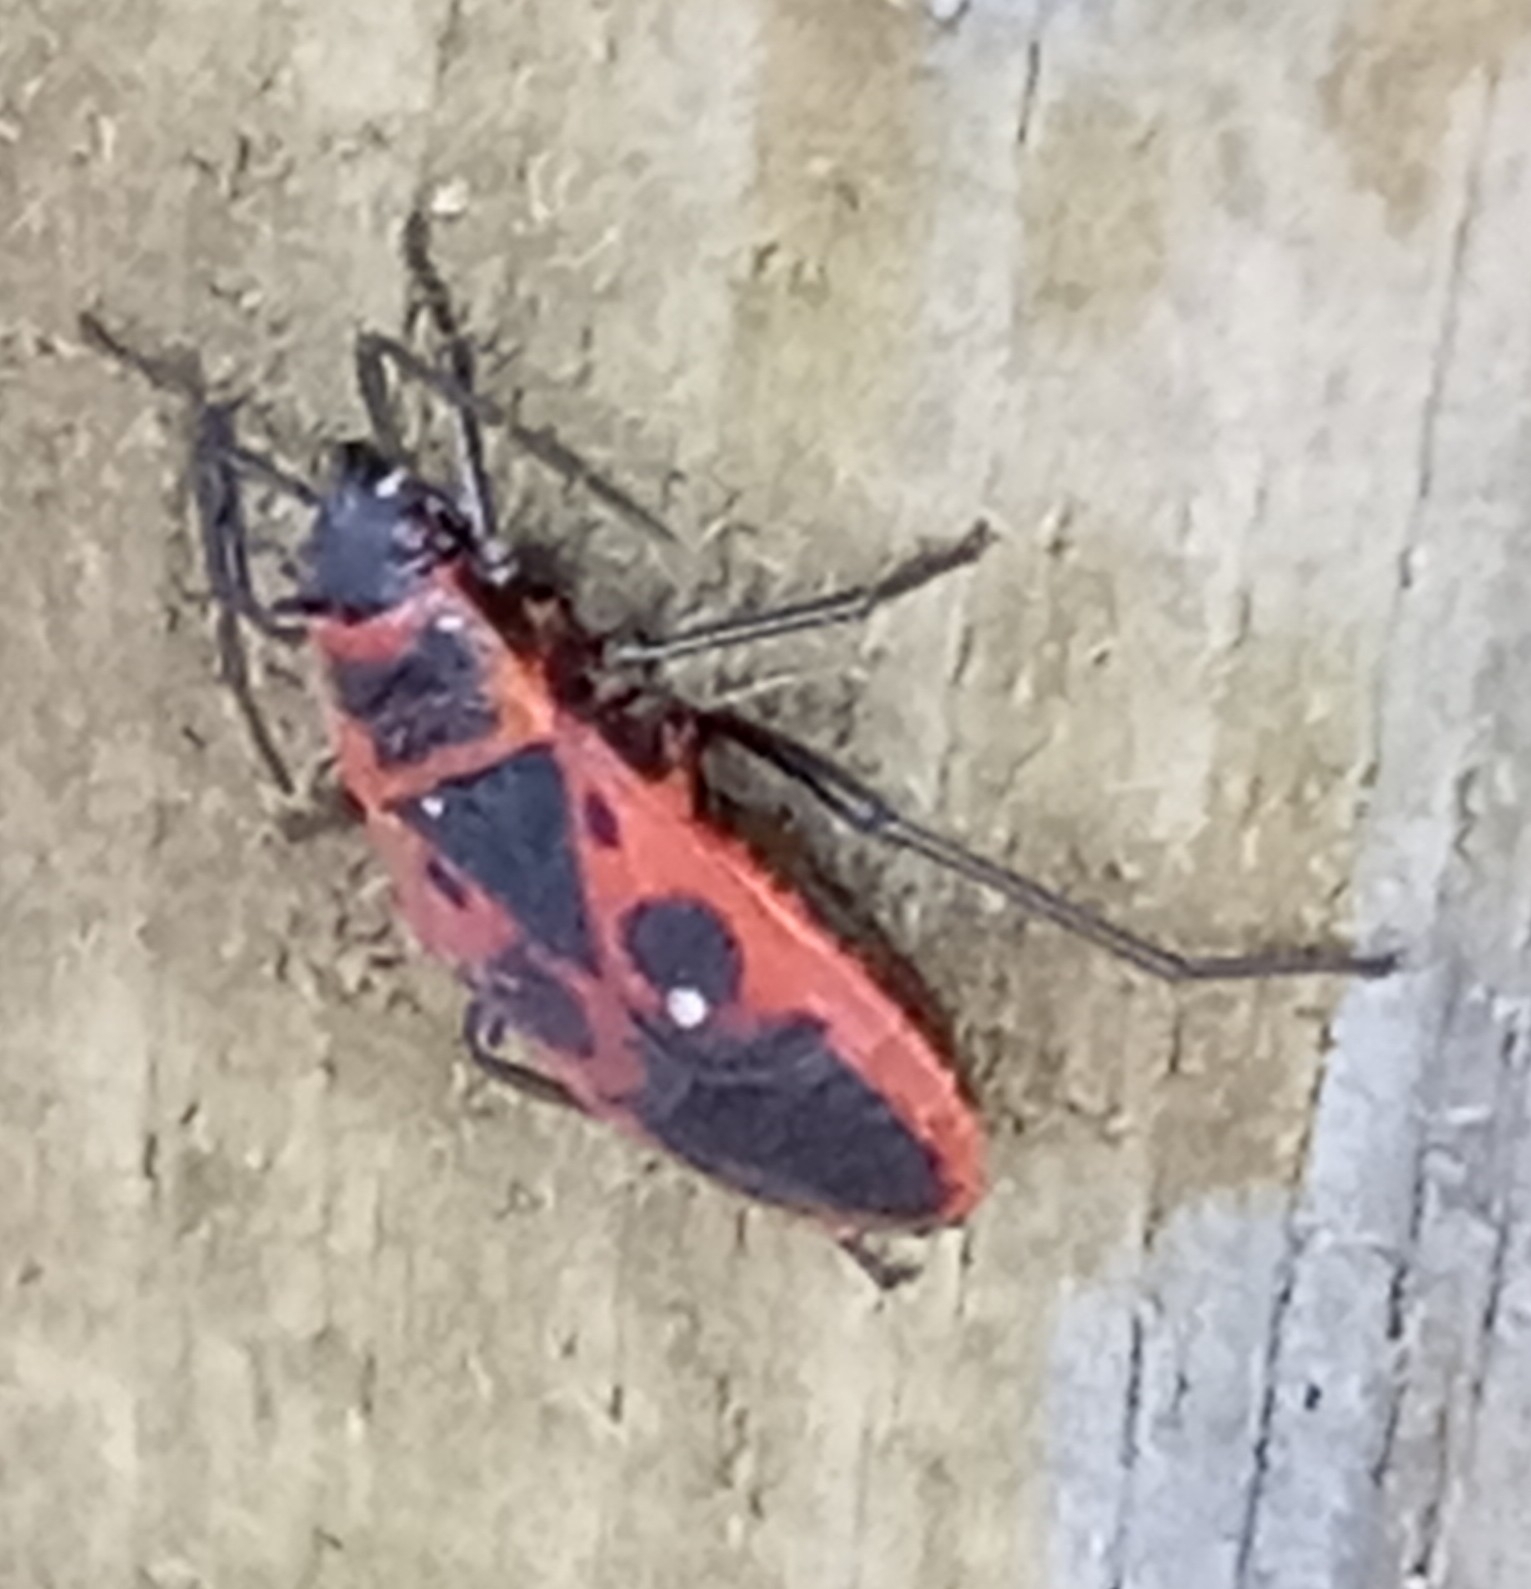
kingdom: Animalia
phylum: Arthropoda
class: Insecta
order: Hemiptera
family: Pyrrhocoridae
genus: Pyrrhocoris
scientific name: Pyrrhocoris apterus
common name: Firebug
